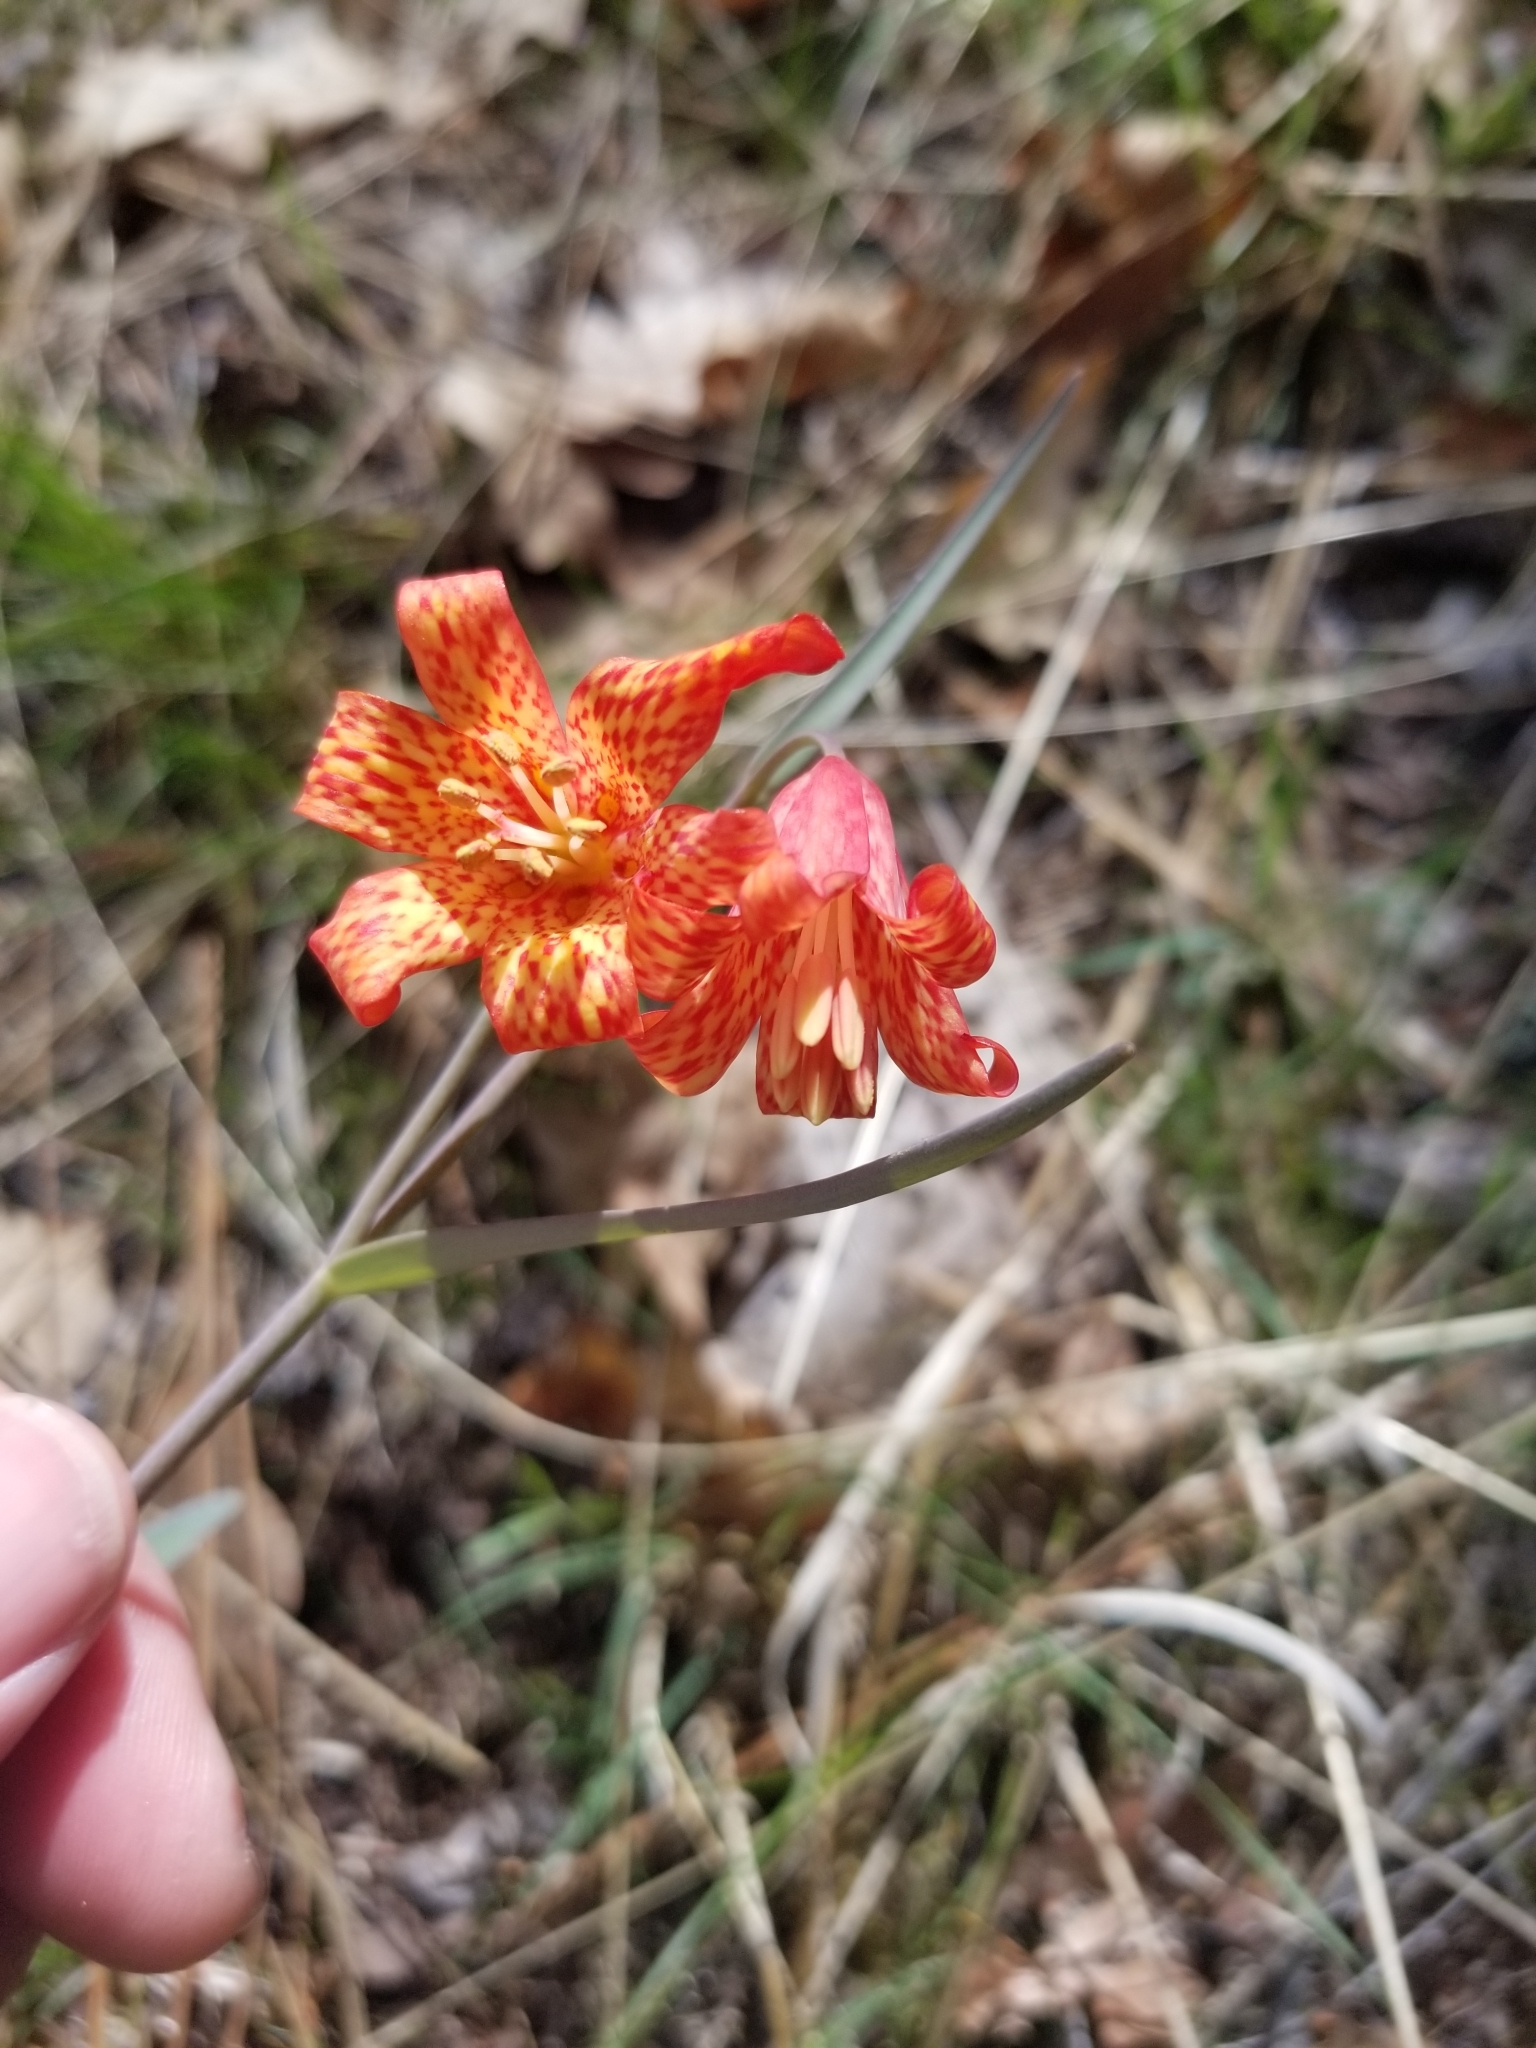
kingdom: Plantae
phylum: Tracheophyta
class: Liliopsida
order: Liliales
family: Liliaceae
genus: Fritillaria
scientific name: Fritillaria recurva
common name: Scarlet fritillary
